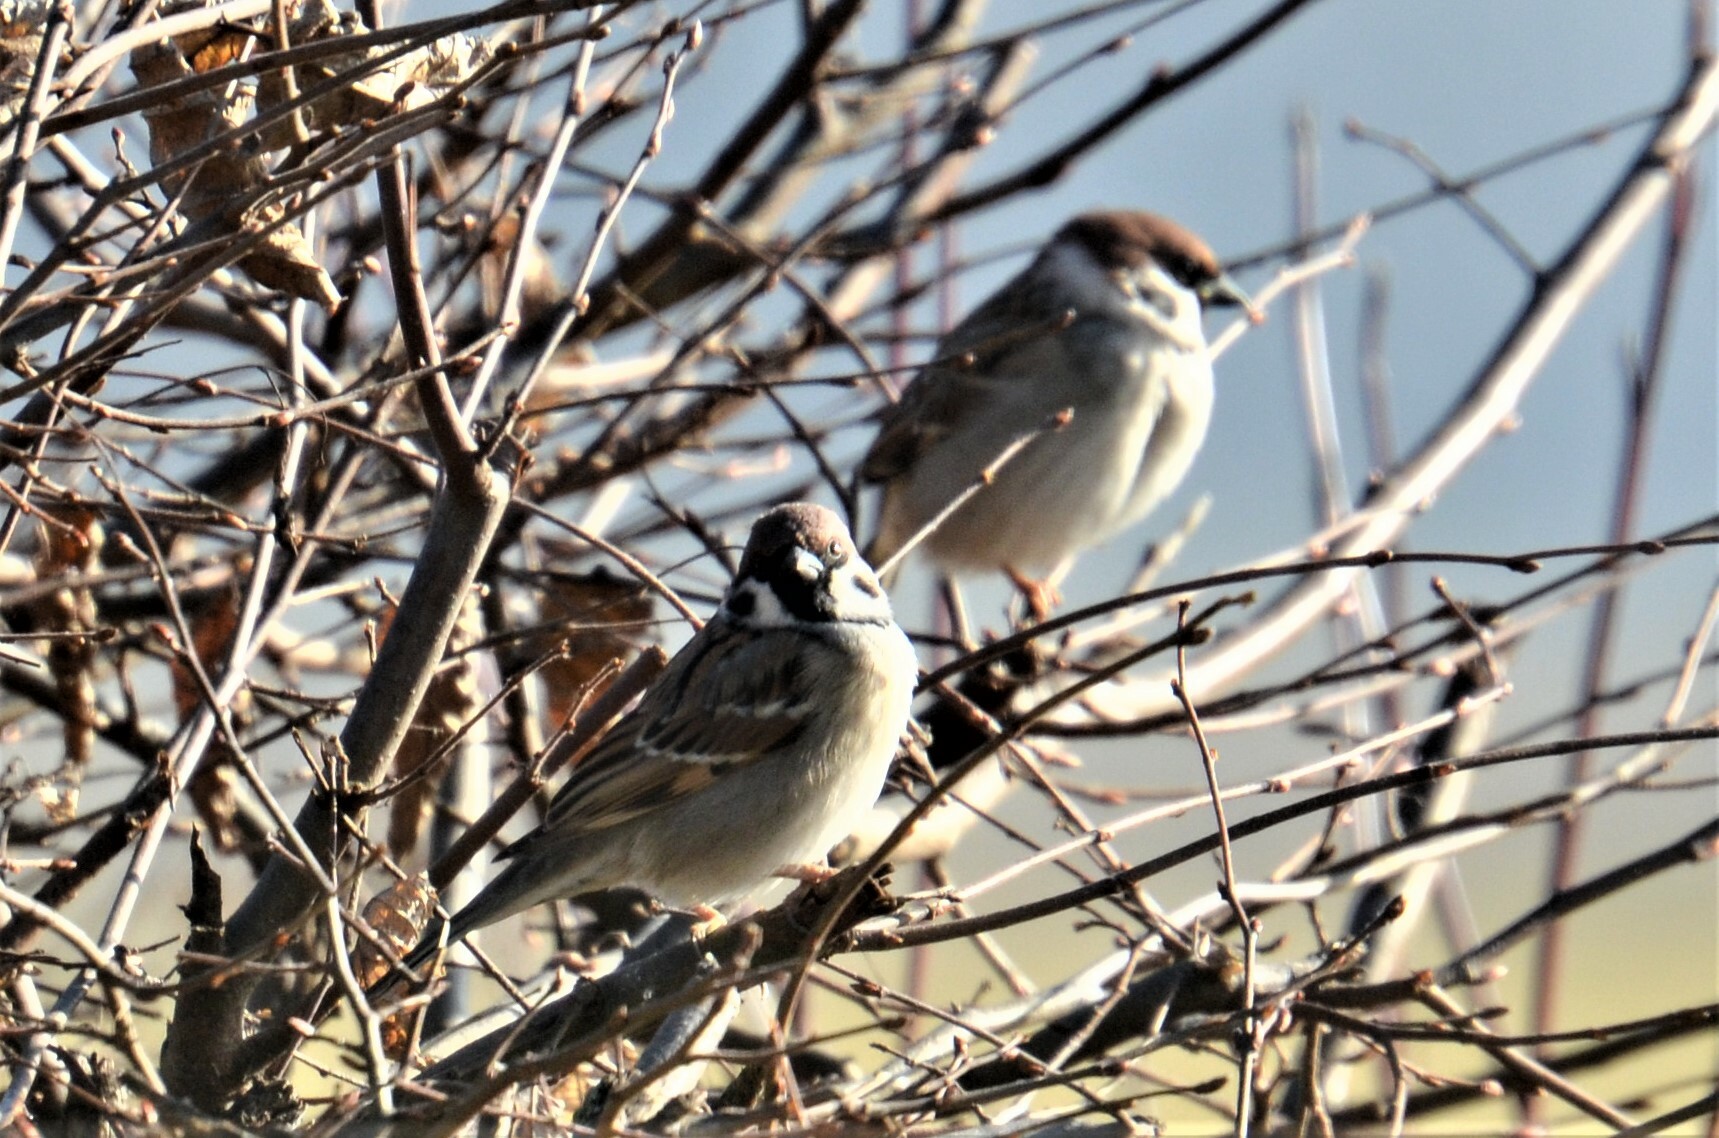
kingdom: Animalia
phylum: Chordata
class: Aves
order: Passeriformes
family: Passeridae
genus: Passer
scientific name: Passer montanus
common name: Eurasian tree sparrow
